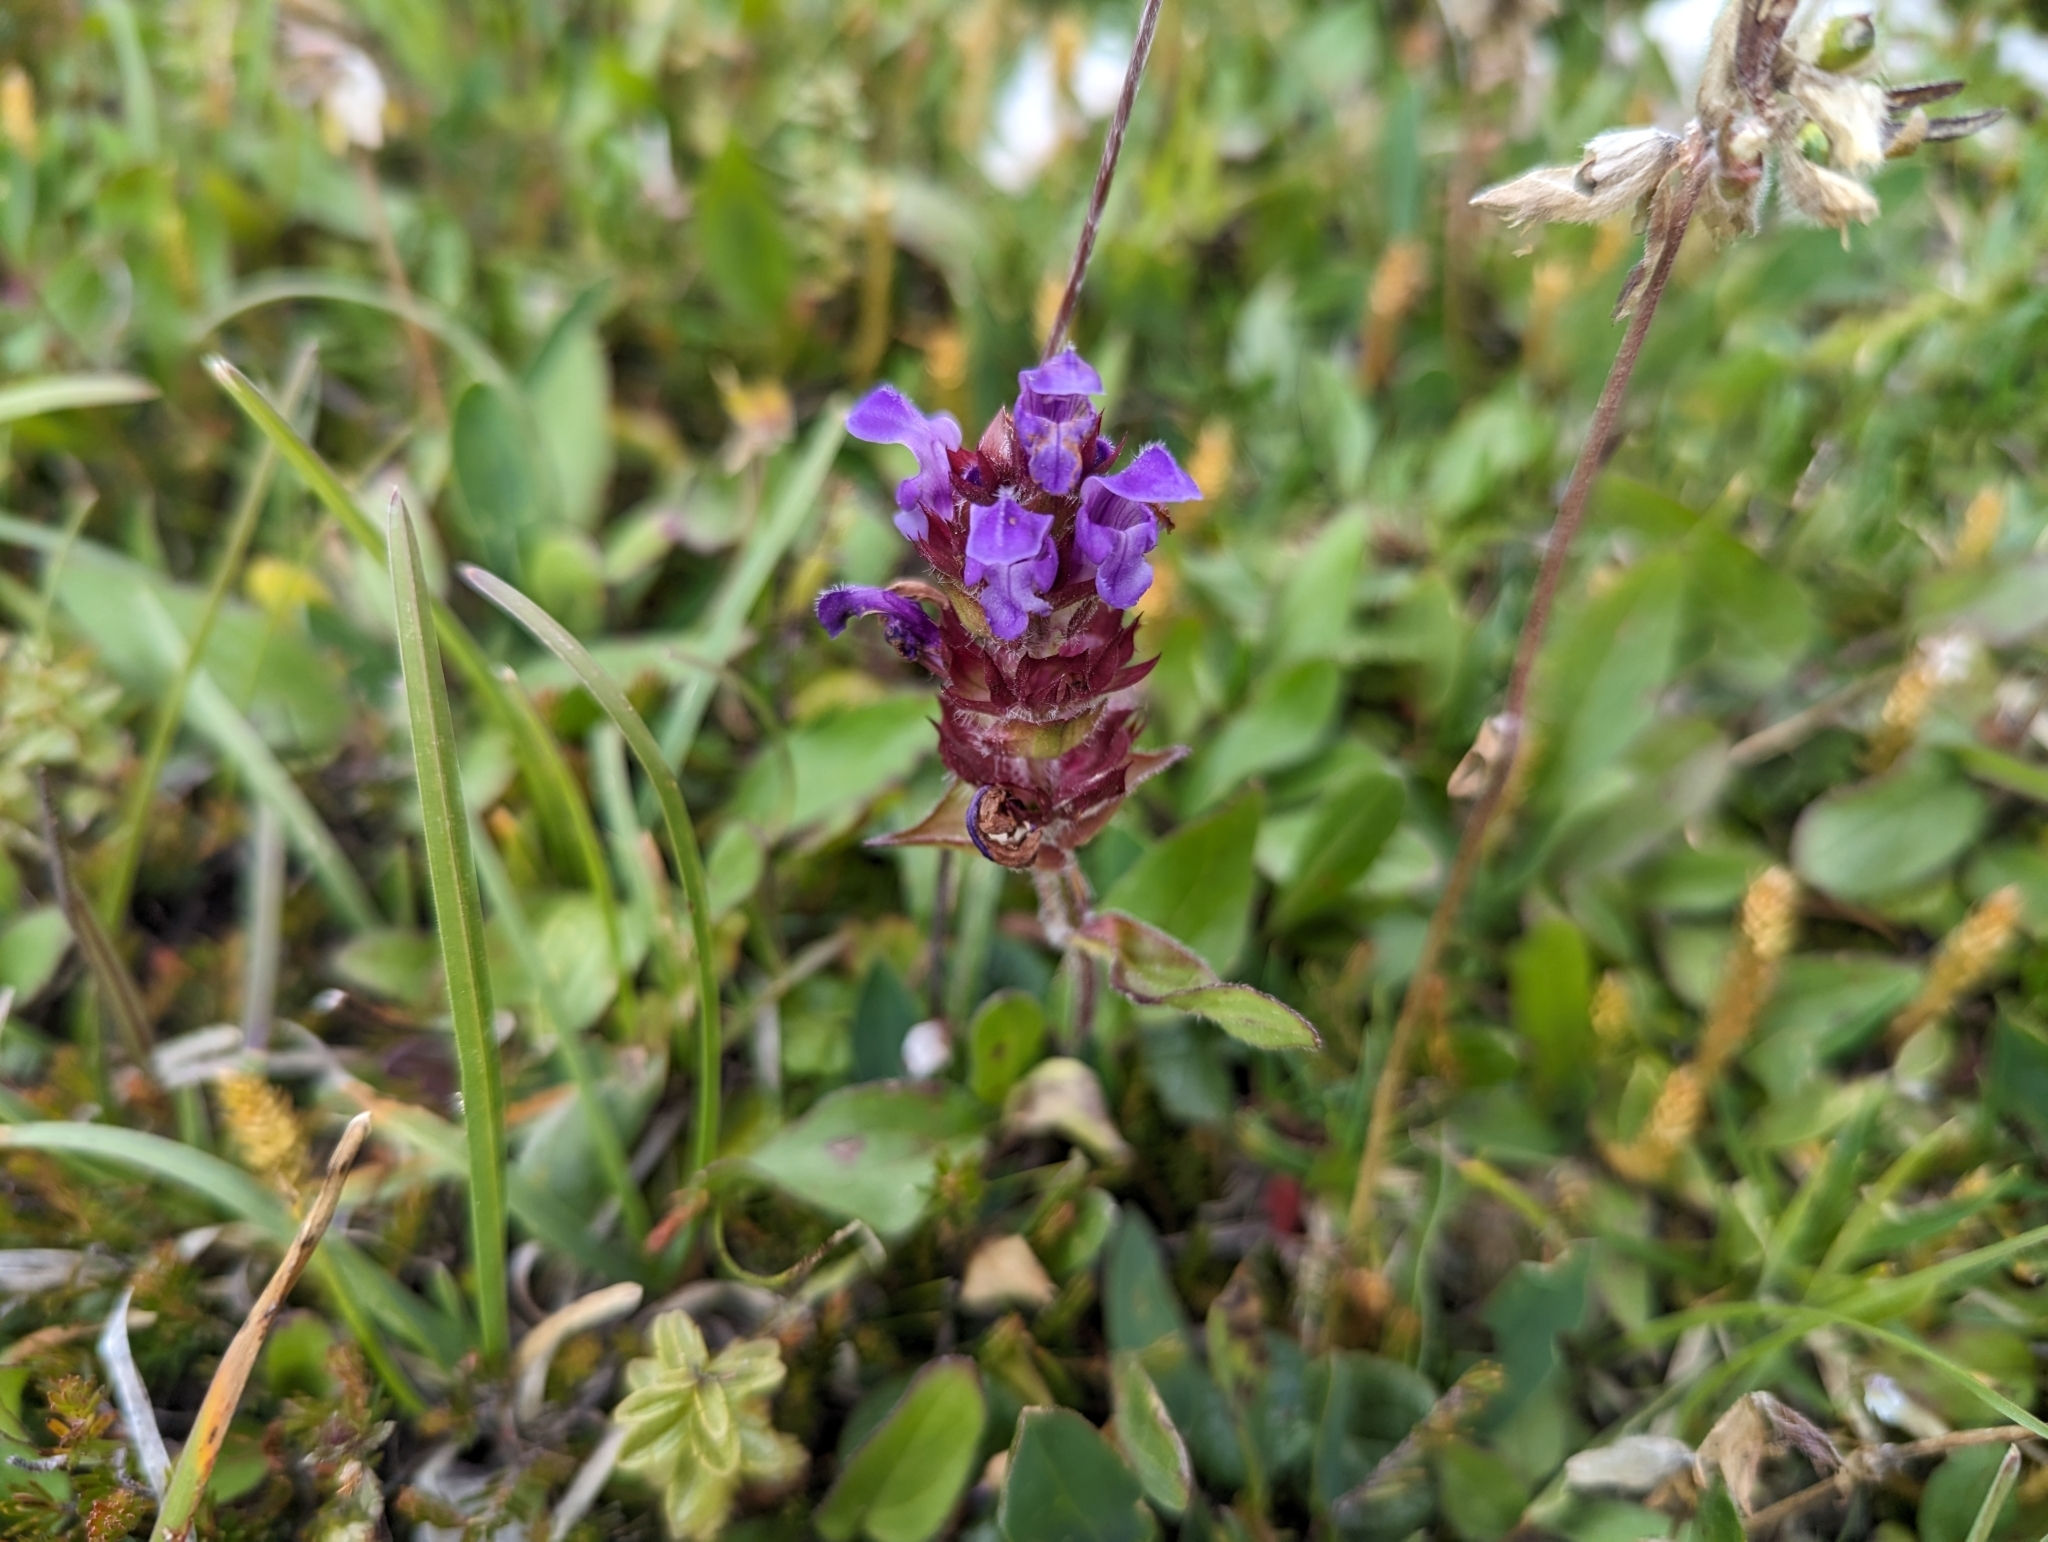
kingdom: Plantae
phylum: Tracheophyta
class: Magnoliopsida
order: Lamiales
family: Lamiaceae
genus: Prunella
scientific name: Prunella vulgaris
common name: Heal-all
